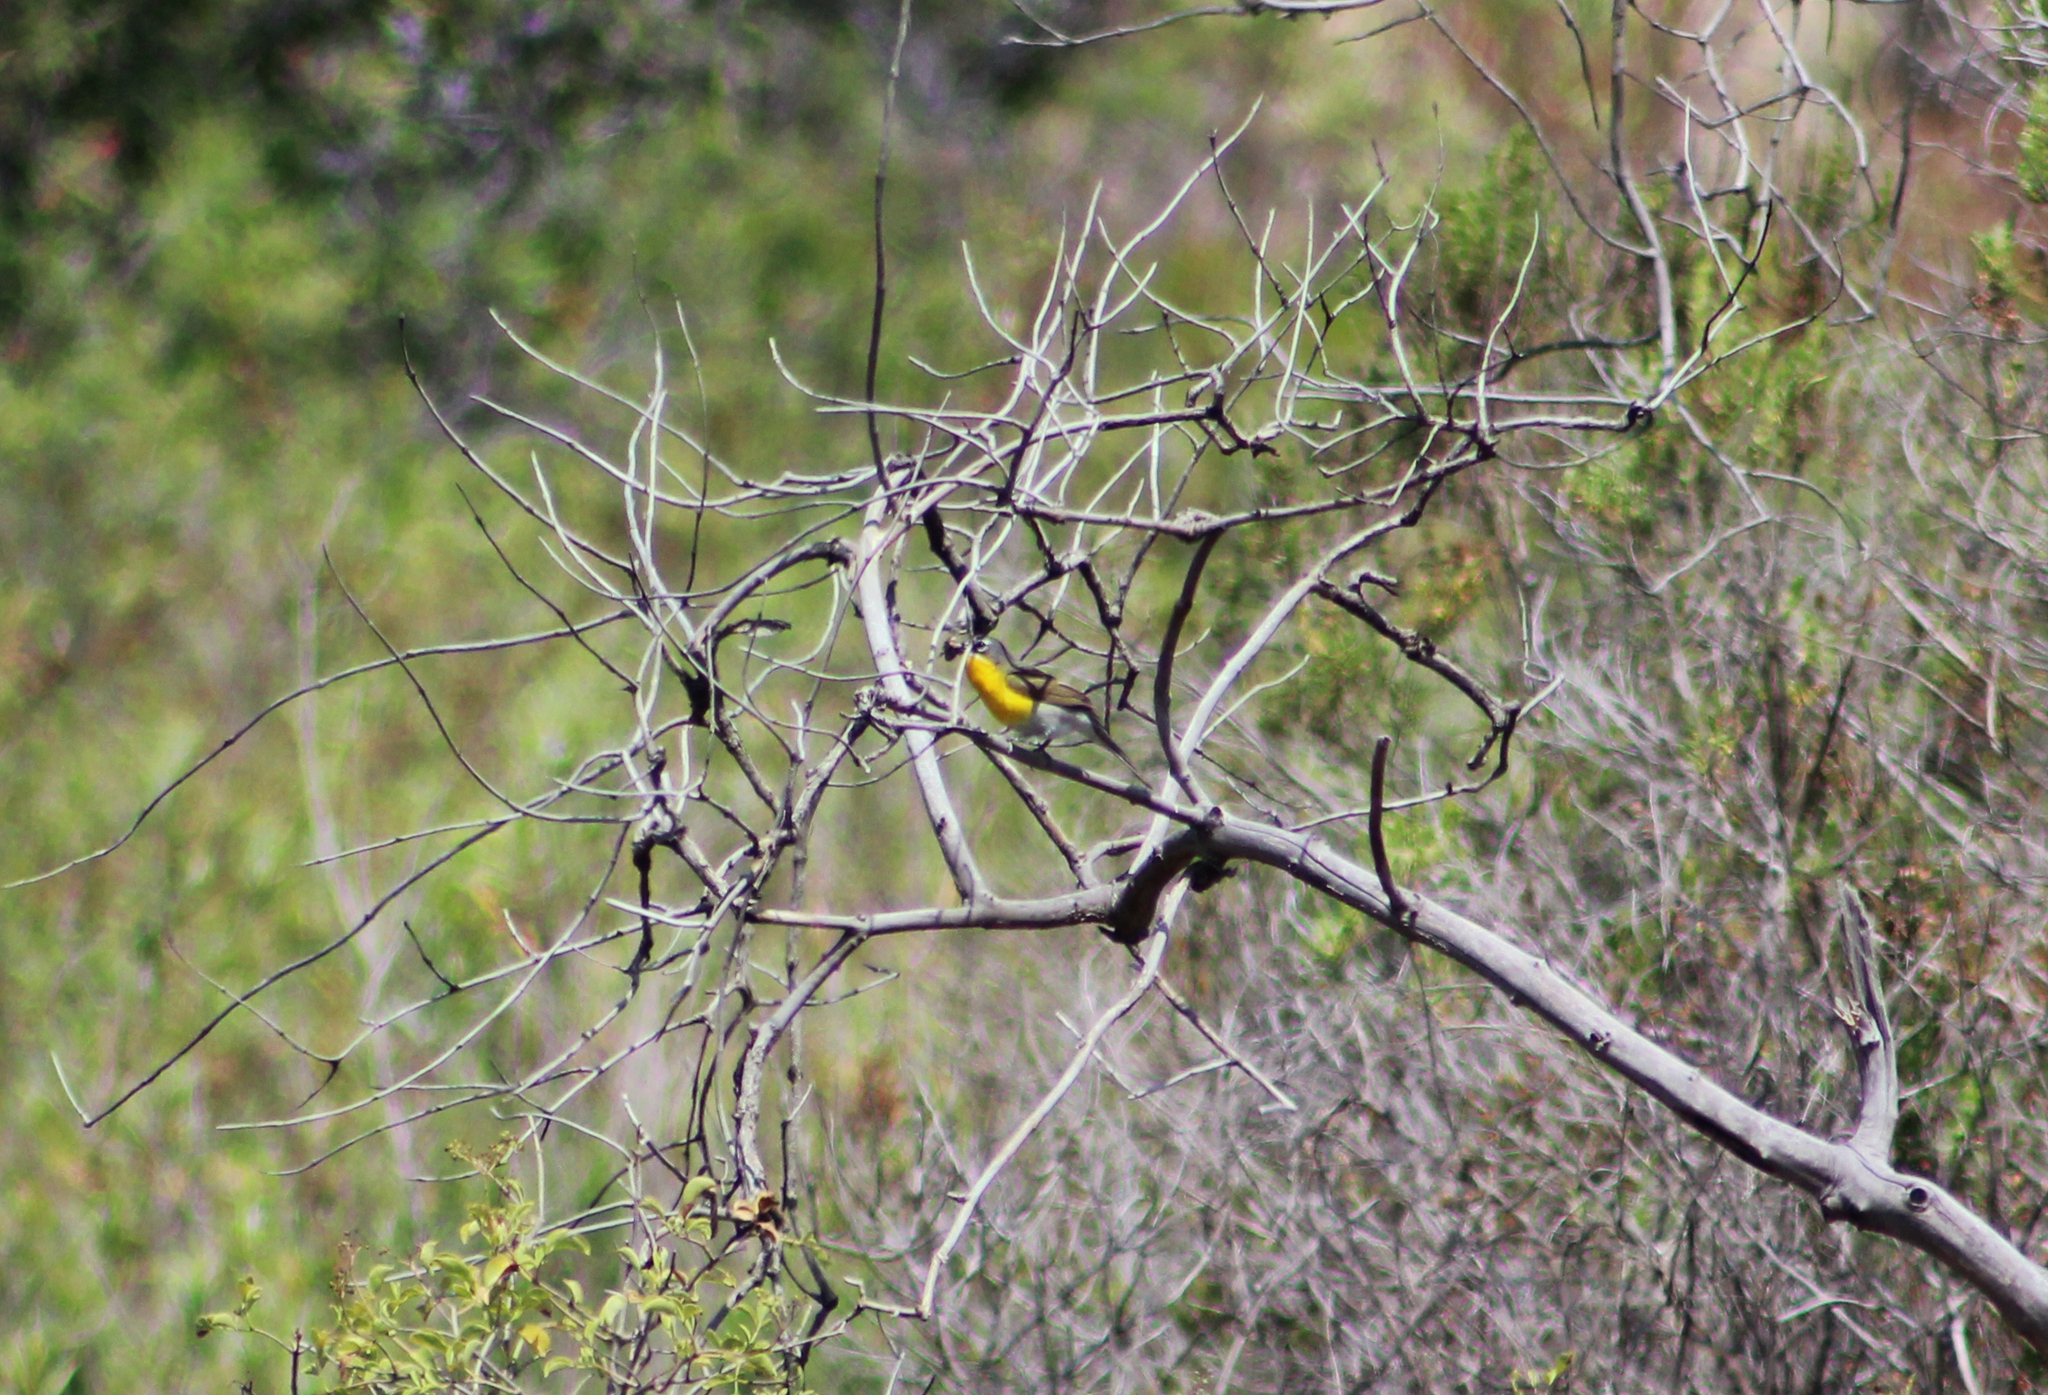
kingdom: Animalia
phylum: Chordata
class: Aves
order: Passeriformes
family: Parulidae
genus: Icteria
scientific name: Icteria virens
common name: Yellow-breasted chat
